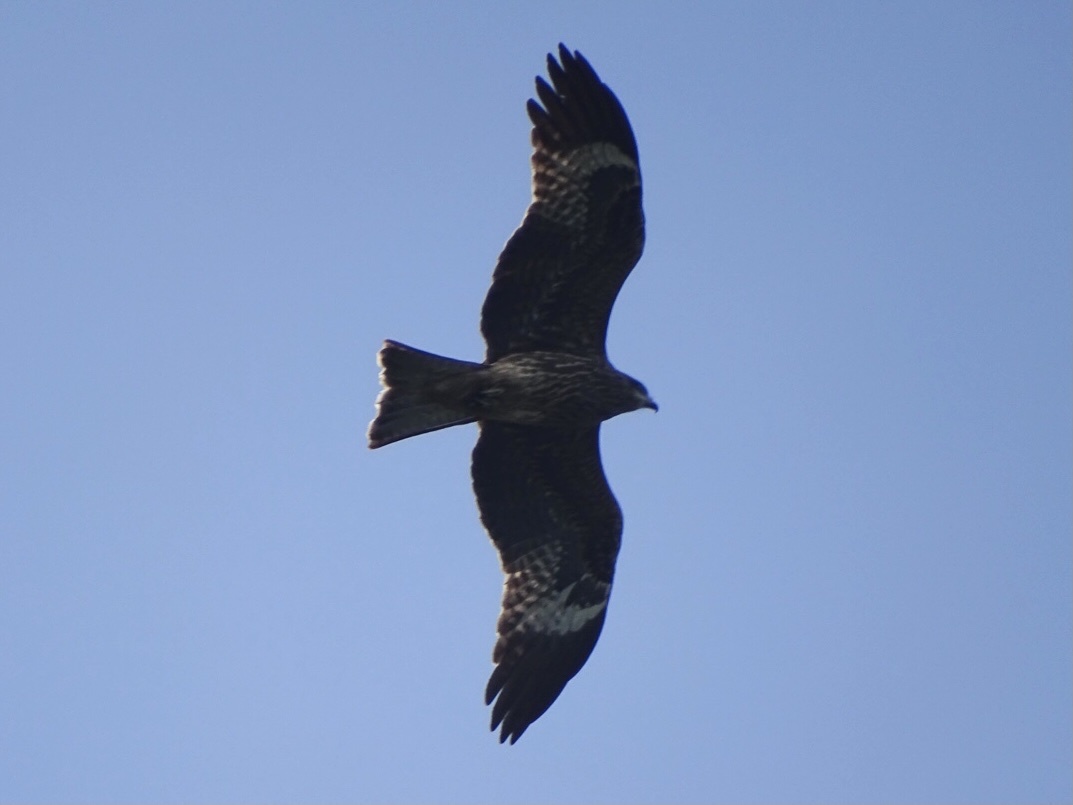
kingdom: Animalia
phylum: Chordata
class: Aves
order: Accipitriformes
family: Accipitridae
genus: Milvus
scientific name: Milvus migrans
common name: Black kite
